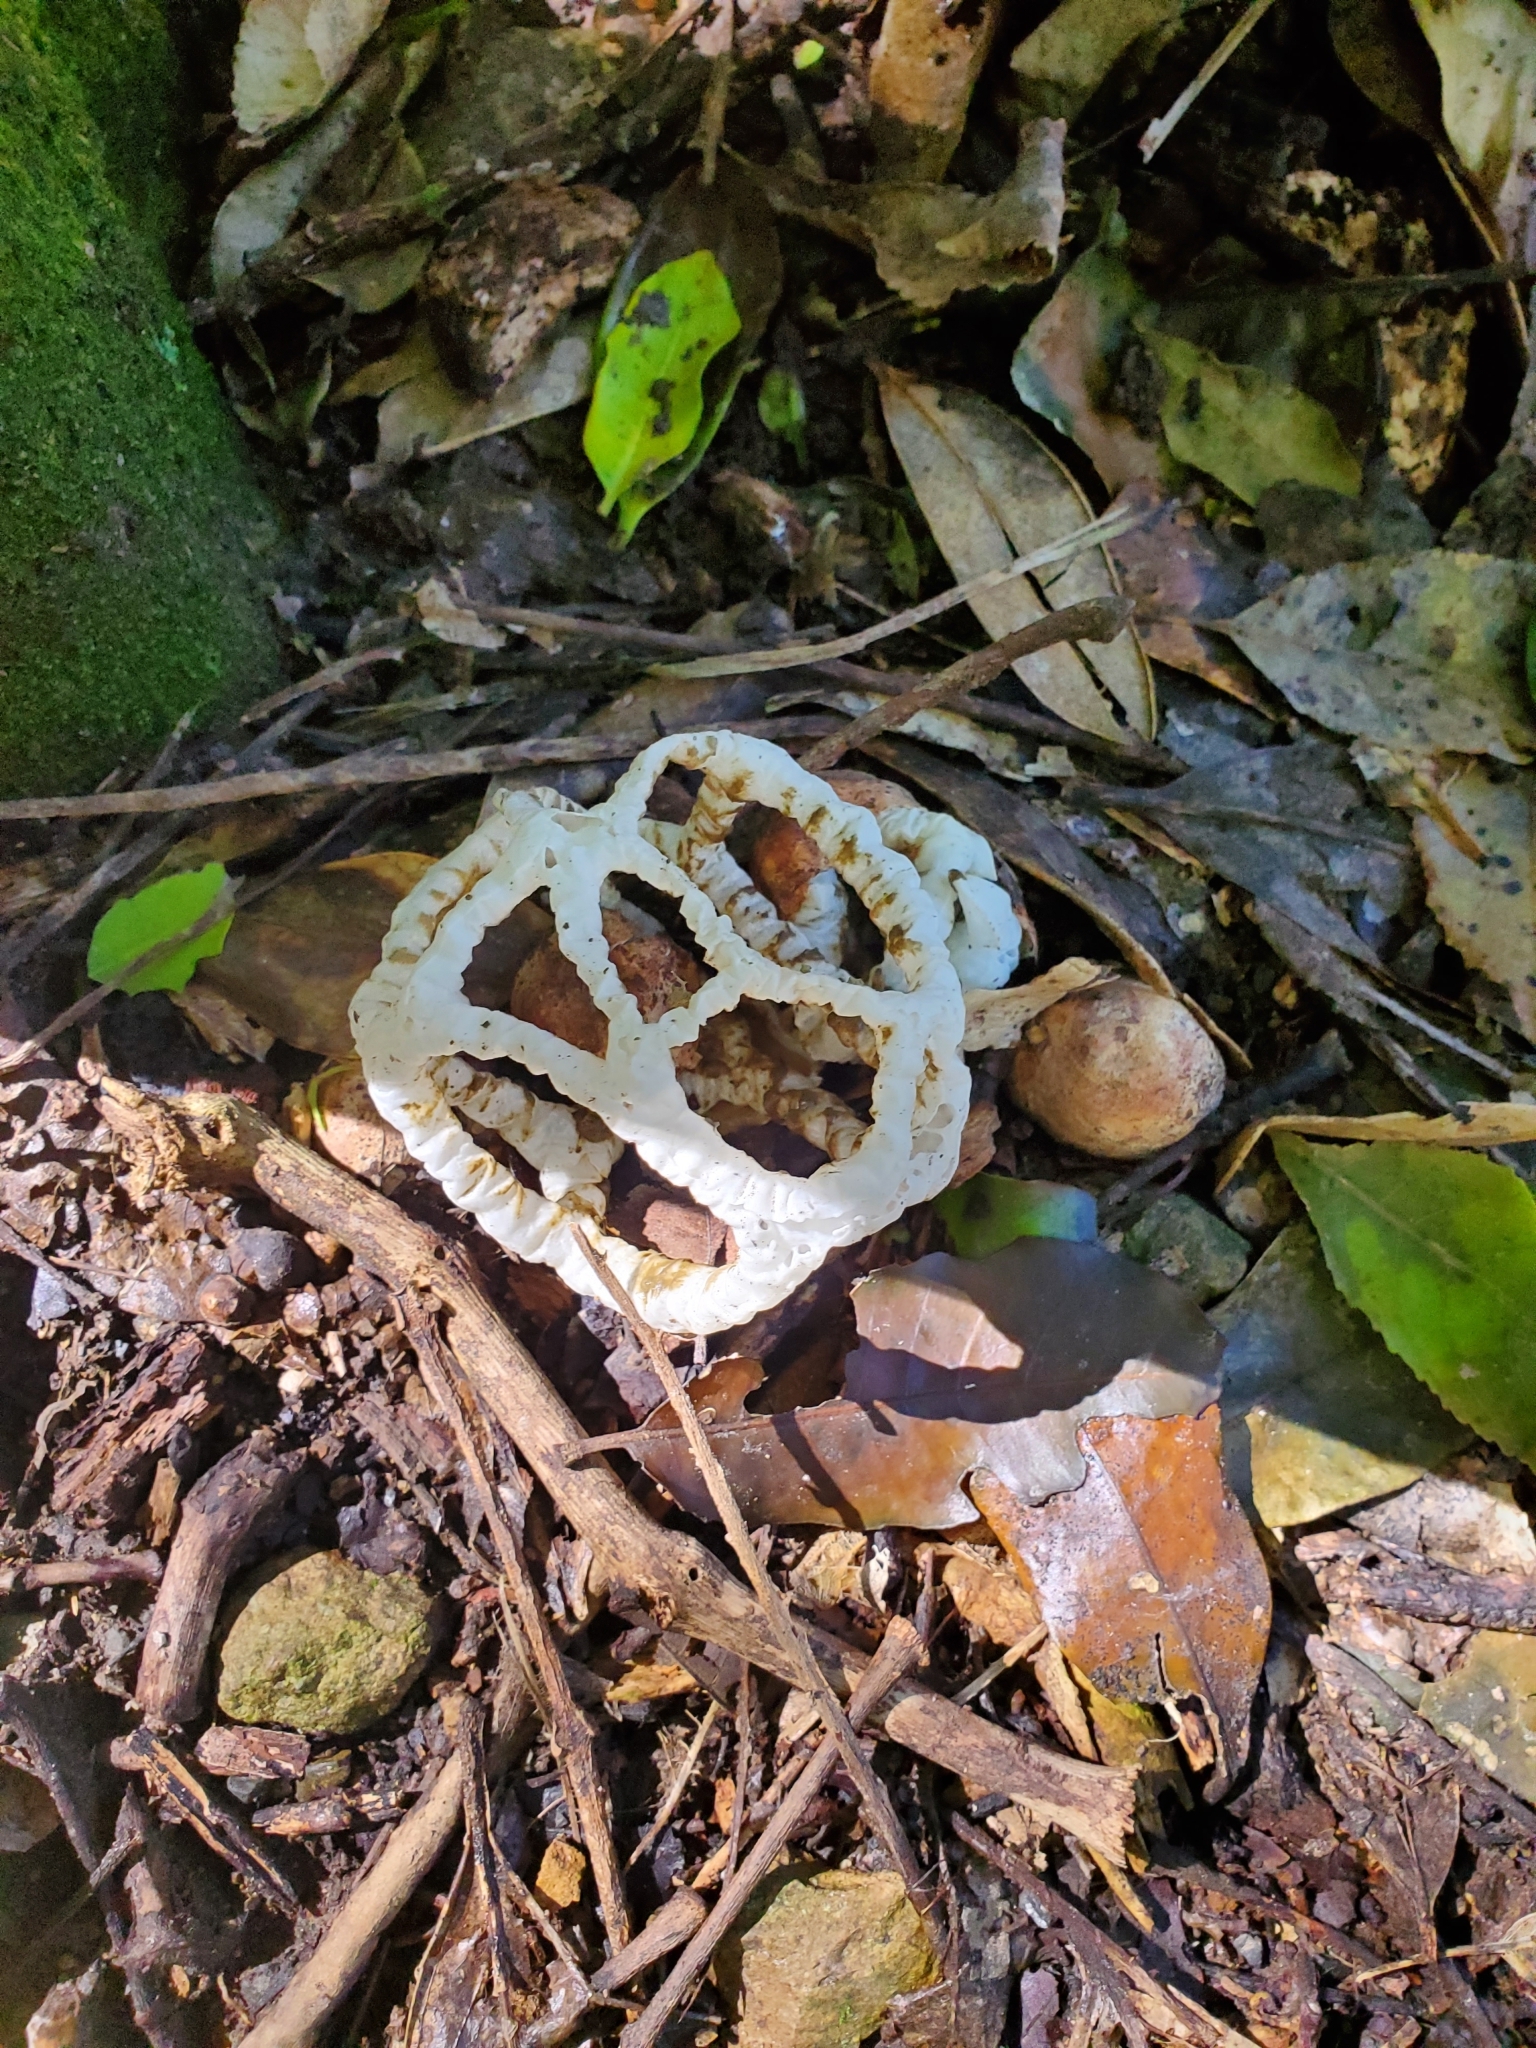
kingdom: Fungi
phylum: Basidiomycota
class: Agaricomycetes
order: Phallales
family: Phallaceae
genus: Ileodictyon
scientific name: Ileodictyon cibarium
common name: Basket fungus
